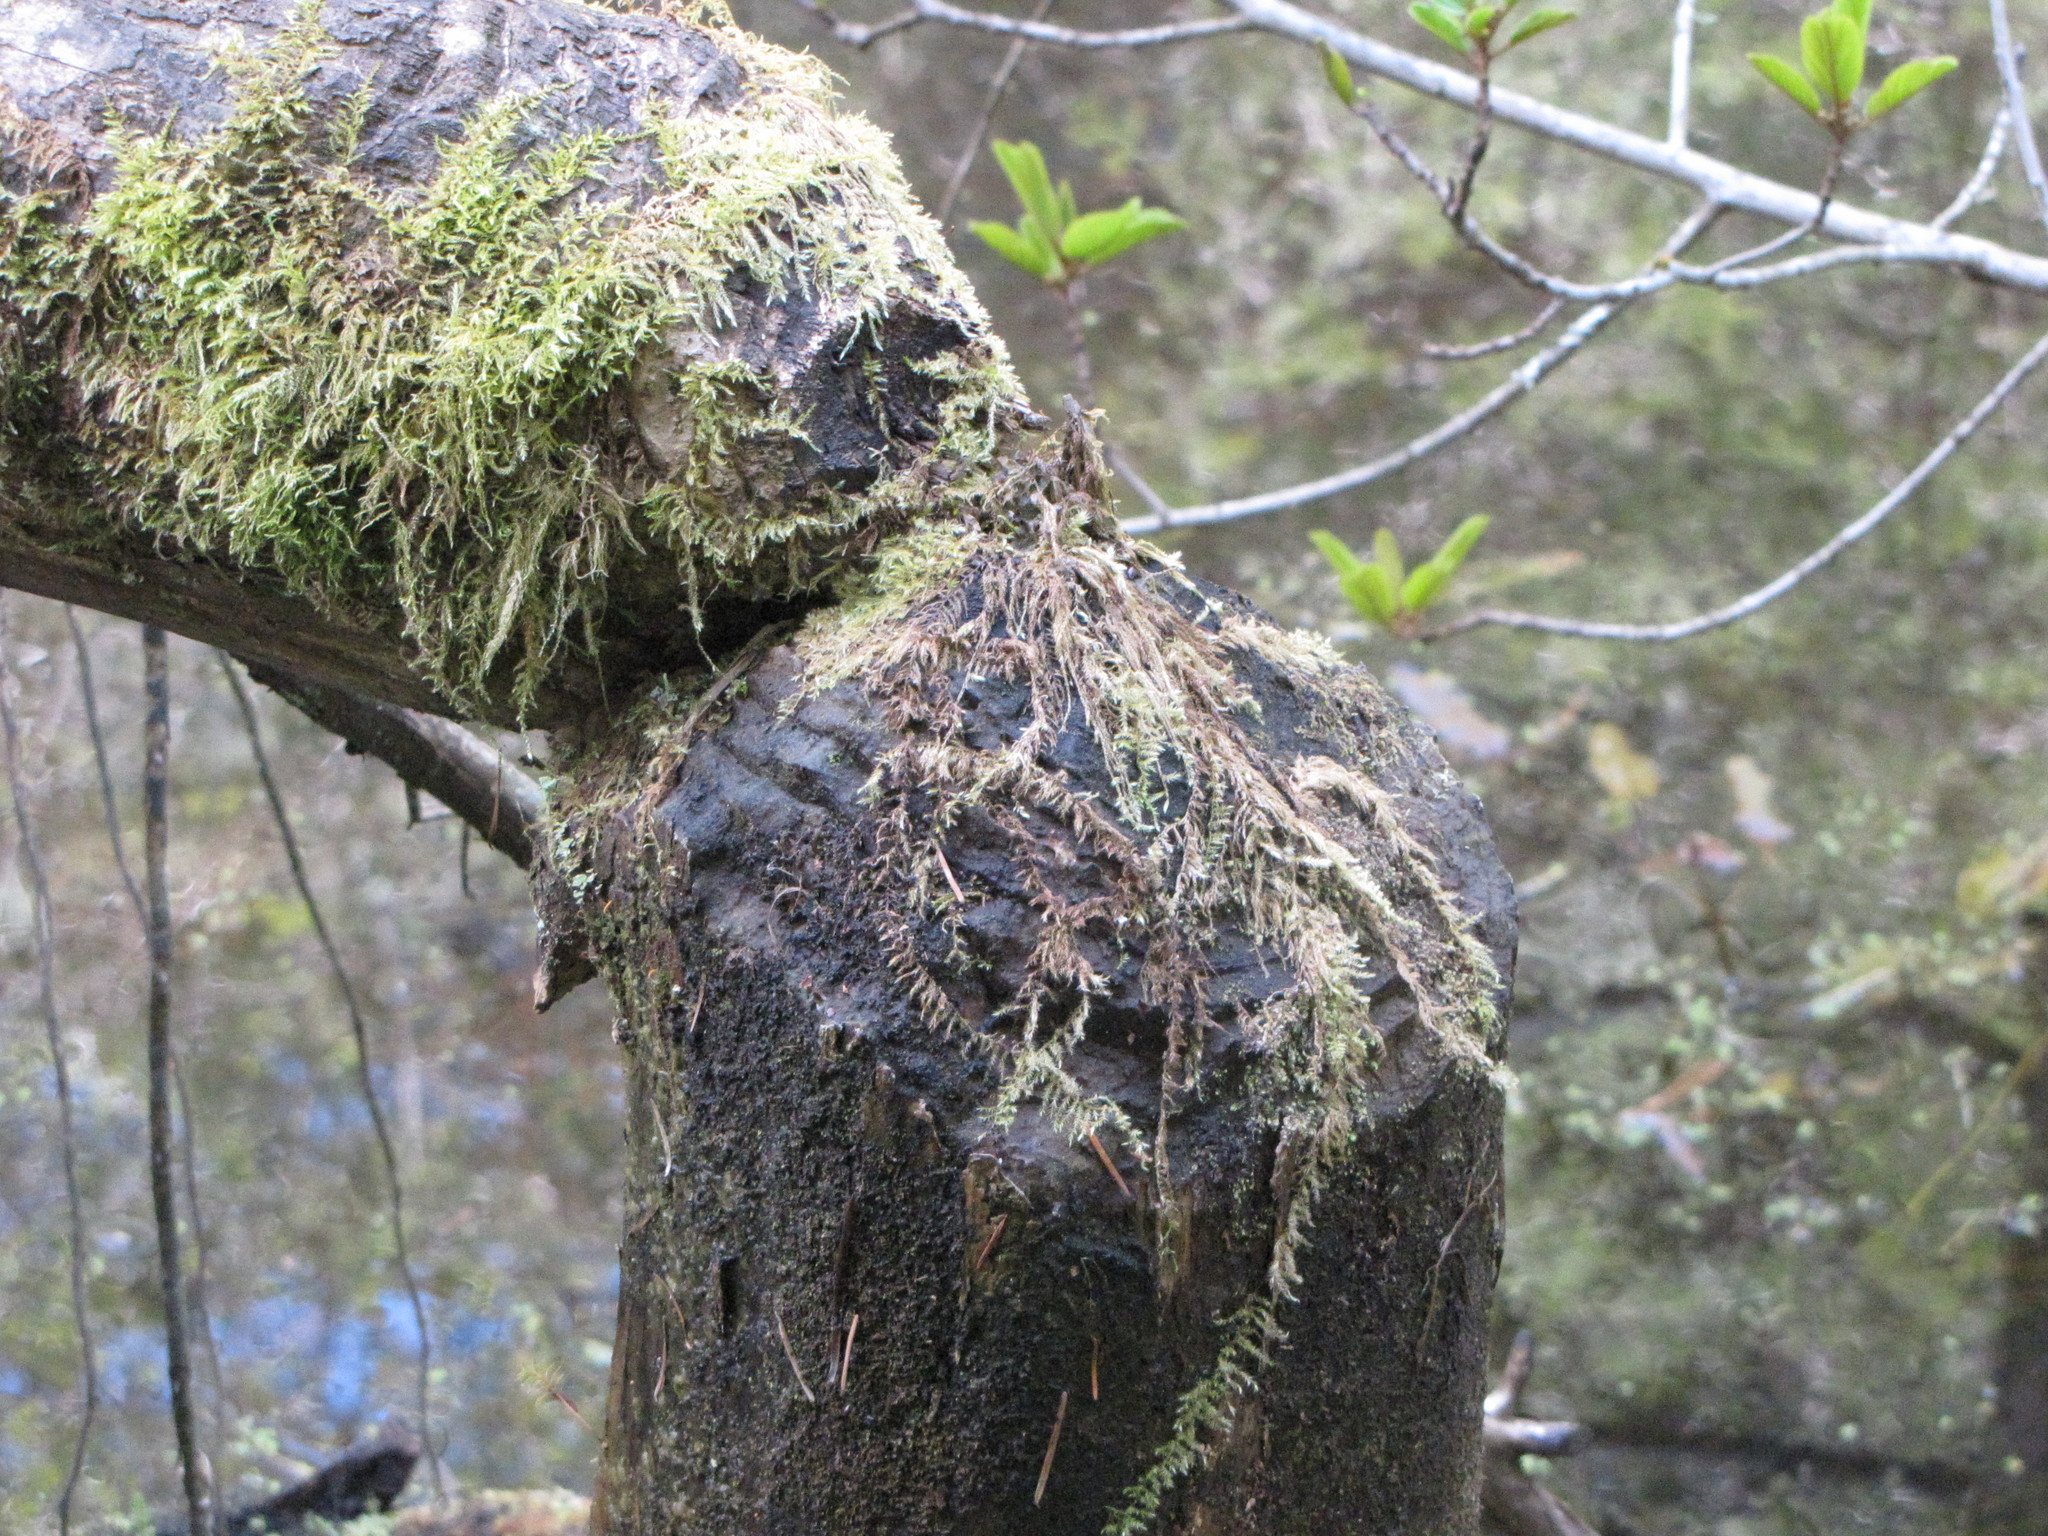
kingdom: Animalia
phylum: Chordata
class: Mammalia
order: Rodentia
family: Castoridae
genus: Castor
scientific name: Castor canadensis
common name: American beaver
